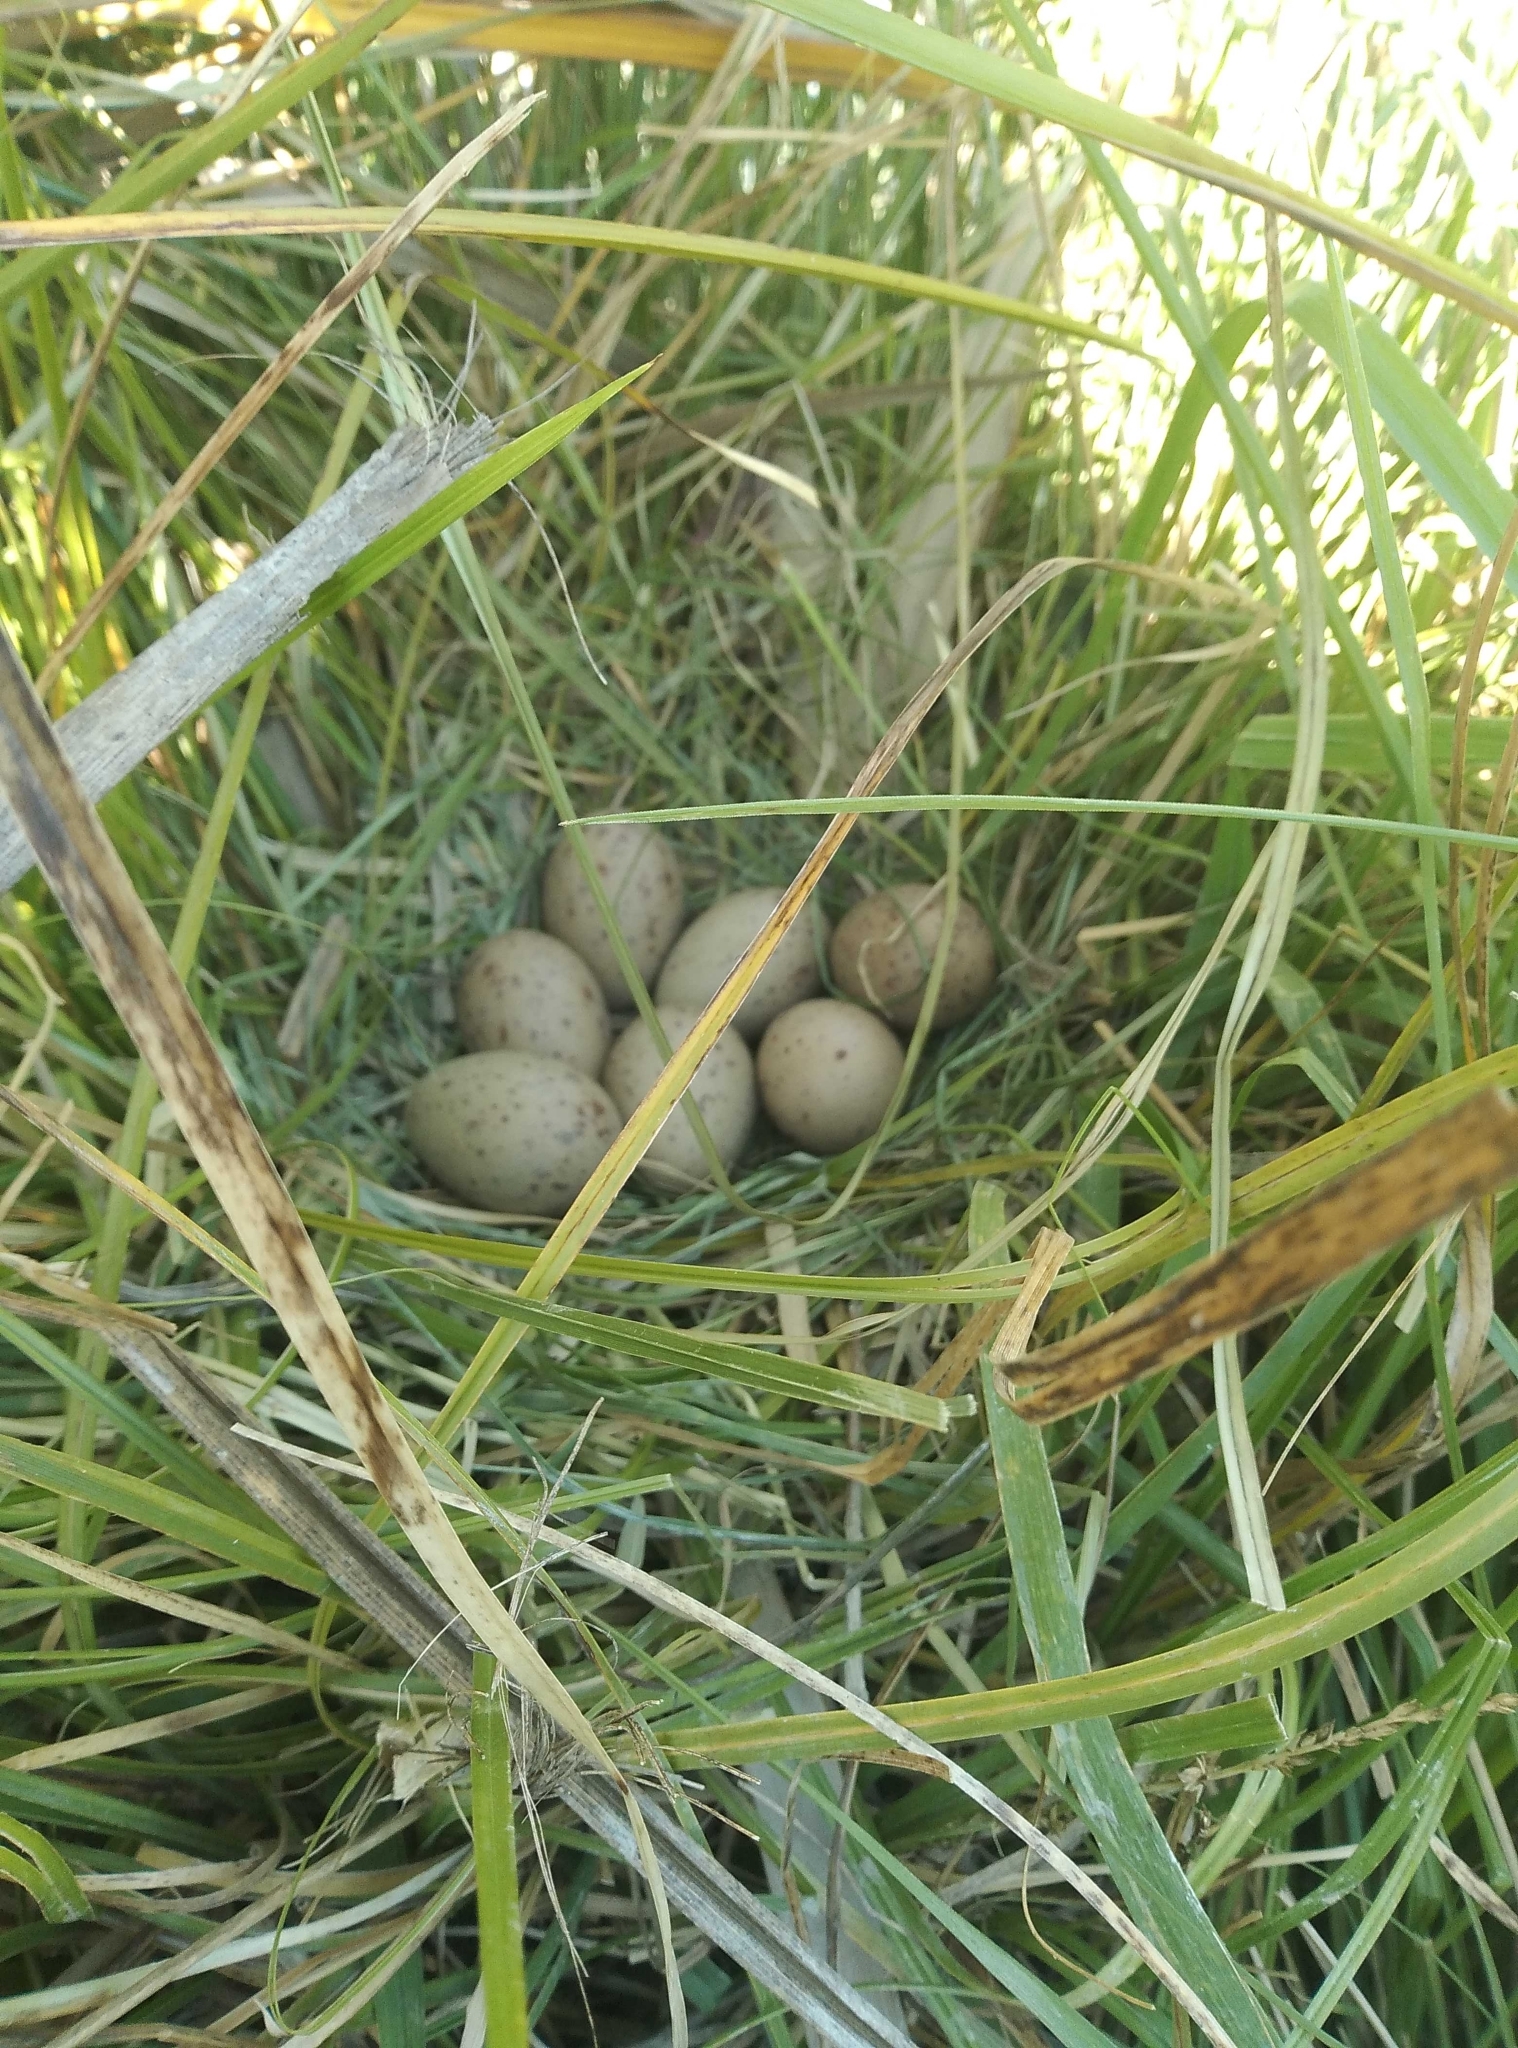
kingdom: Animalia
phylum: Chordata
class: Aves
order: Gruiformes
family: Rallidae
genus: Porphyrio
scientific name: Porphyrio melanotus
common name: Australasian swamphen
